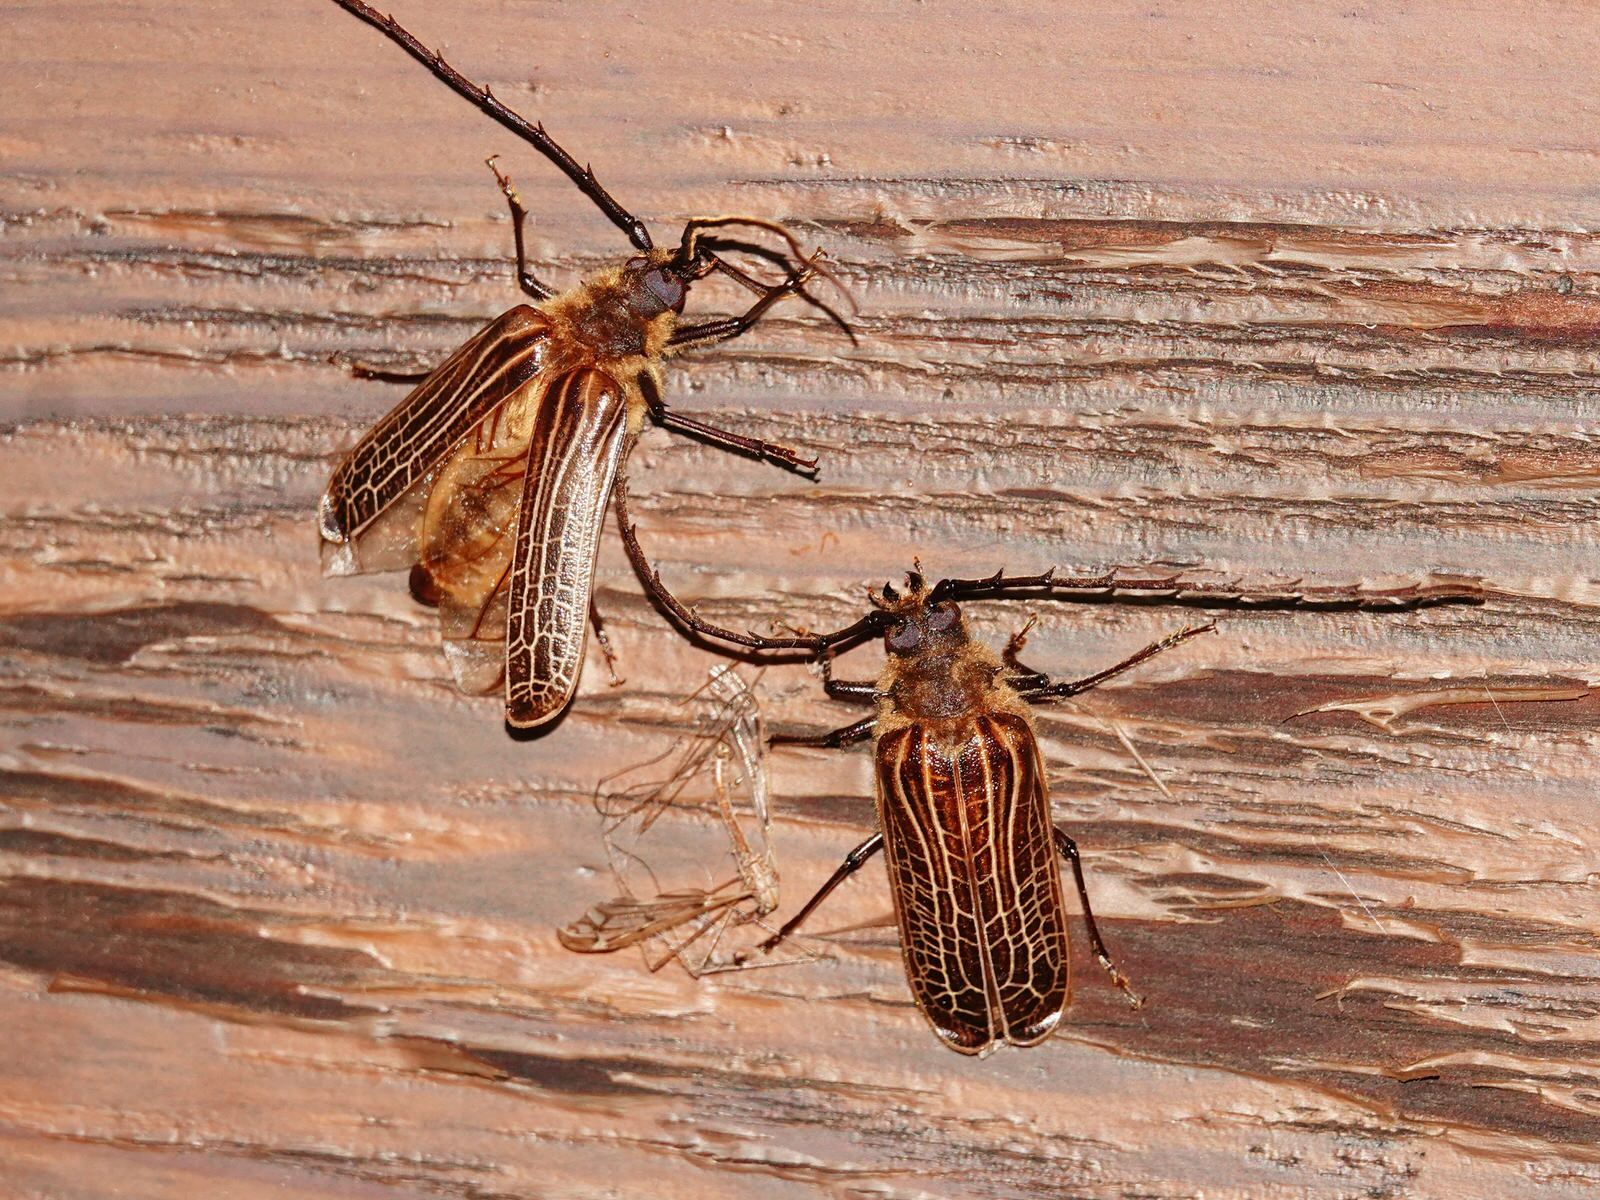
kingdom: Animalia
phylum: Arthropoda
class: Insecta
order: Coleoptera
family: Cerambycidae
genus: Prionoplus
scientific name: Prionoplus reticularis
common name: Huhu beetle
